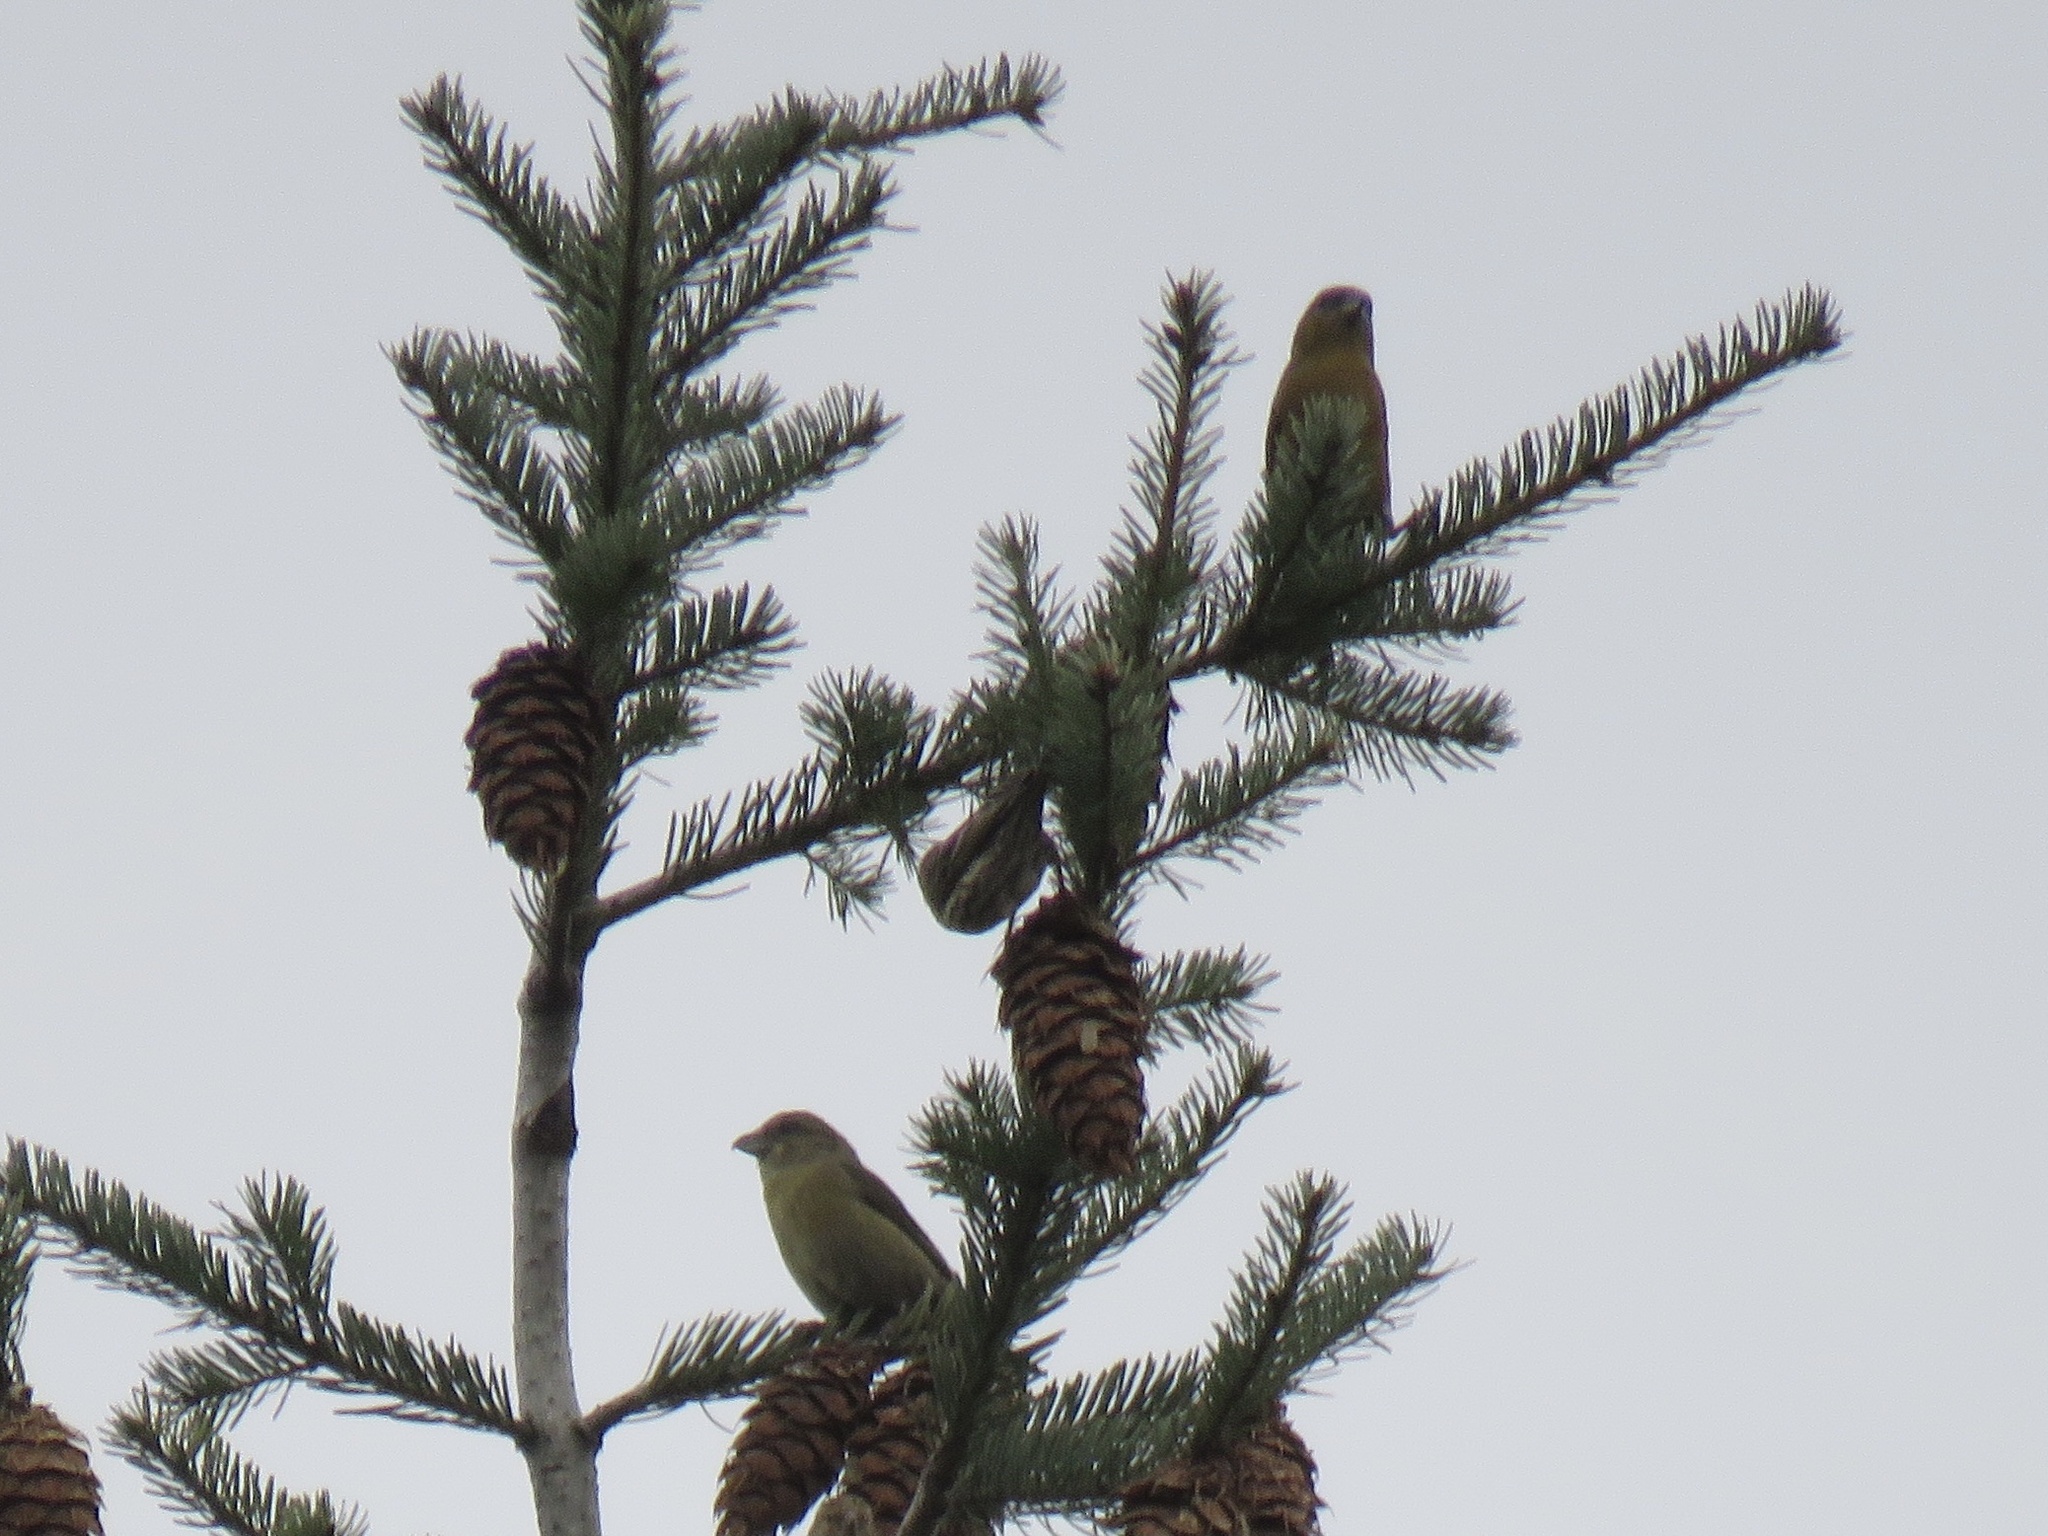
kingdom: Animalia
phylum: Chordata
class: Aves
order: Passeriformes
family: Fringillidae
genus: Loxia
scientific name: Loxia curvirostra
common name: Red crossbill
